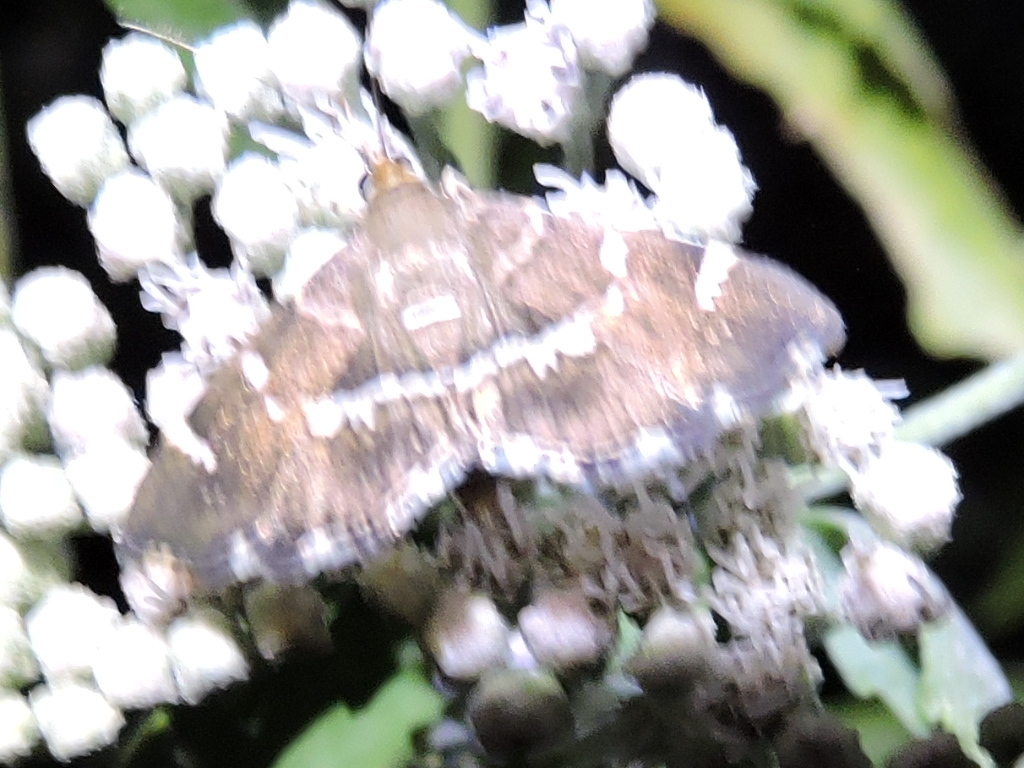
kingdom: Animalia
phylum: Arthropoda
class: Insecta
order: Lepidoptera
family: Crambidae
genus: Hymenia
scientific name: Hymenia perspectalis
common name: Spotted beet webworm
